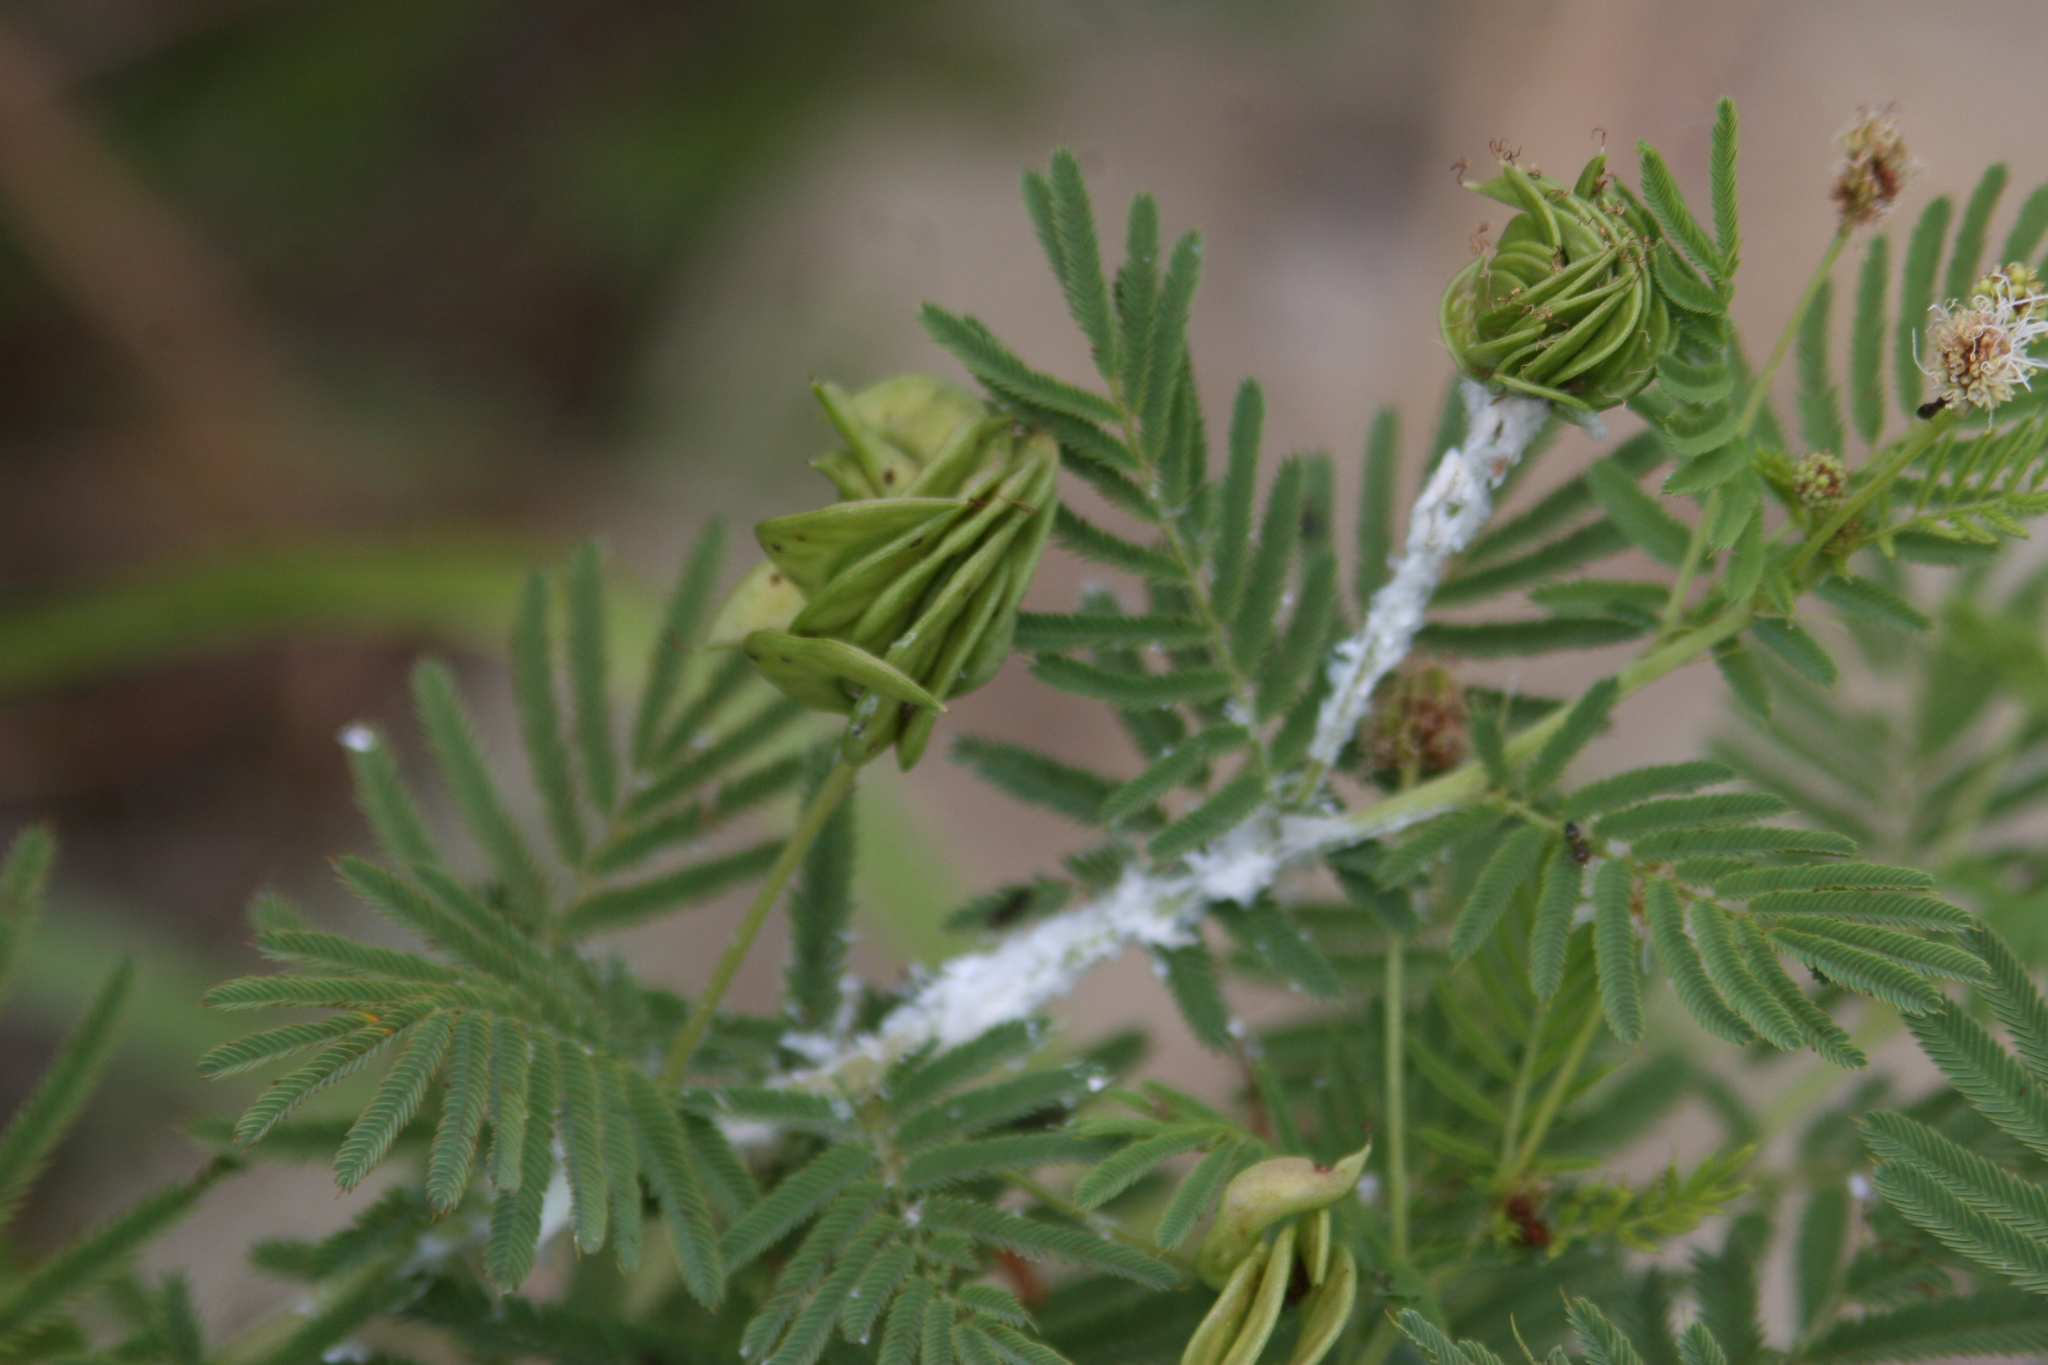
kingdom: Plantae
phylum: Tracheophyta
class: Magnoliopsida
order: Fabales
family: Fabaceae
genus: Desmanthus
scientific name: Desmanthus illinoensis
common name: Illinois bundle-flower
